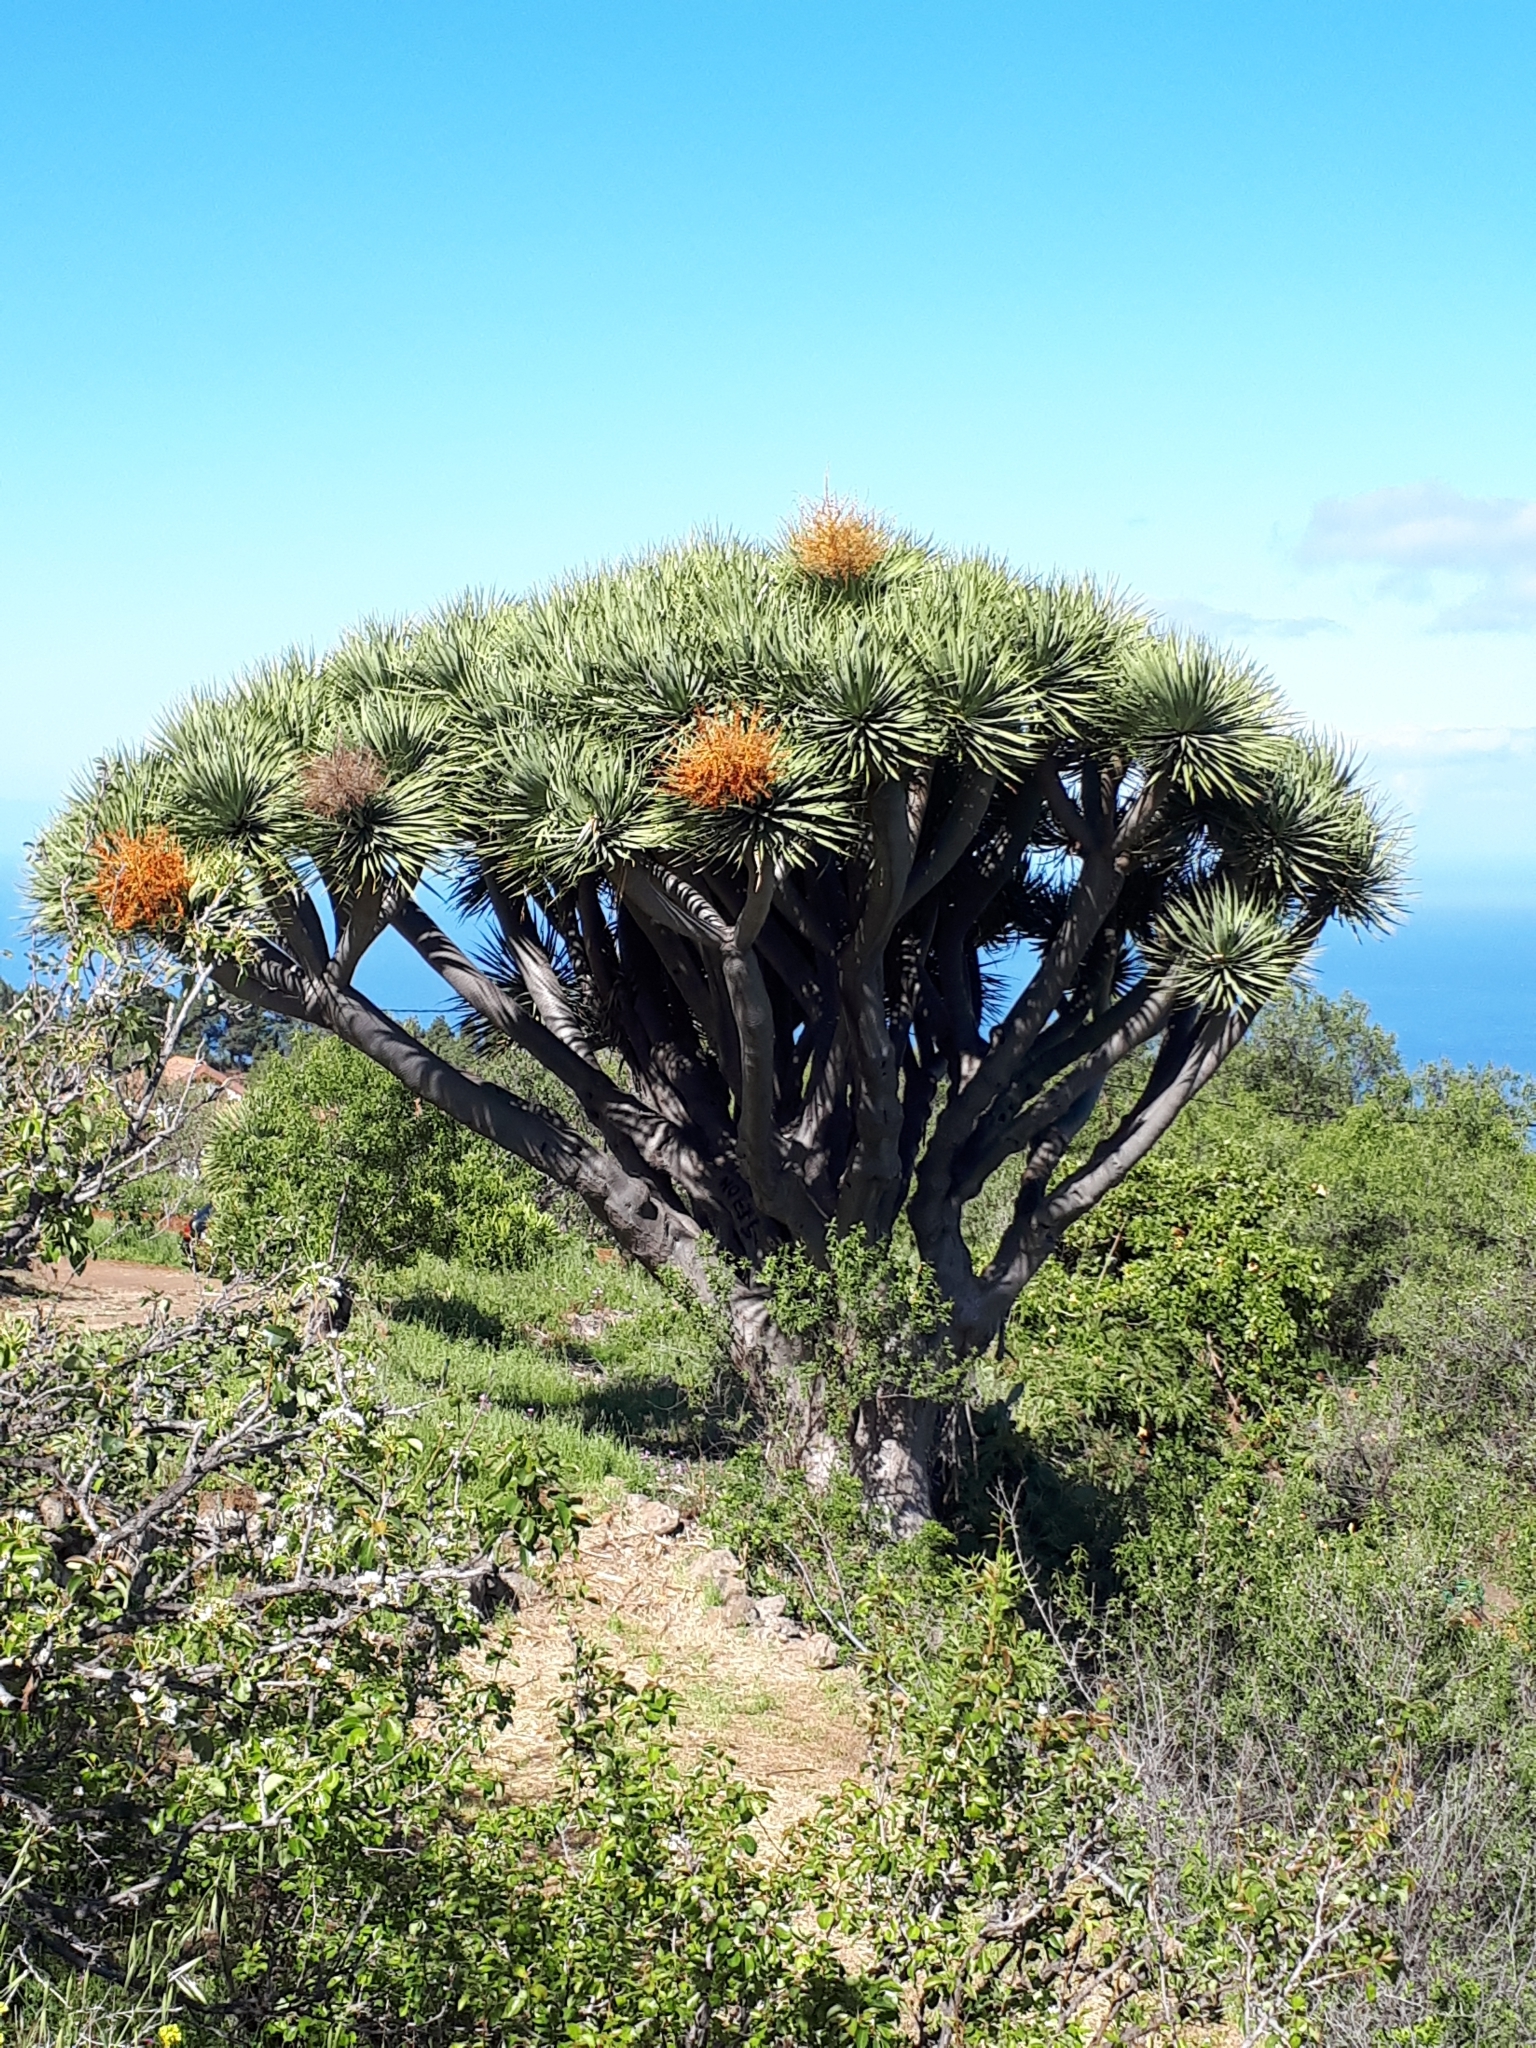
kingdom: Plantae
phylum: Tracheophyta
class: Liliopsida
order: Asparagales
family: Asparagaceae
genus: Dracaena
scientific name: Dracaena draco
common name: Canary island dragon tree
